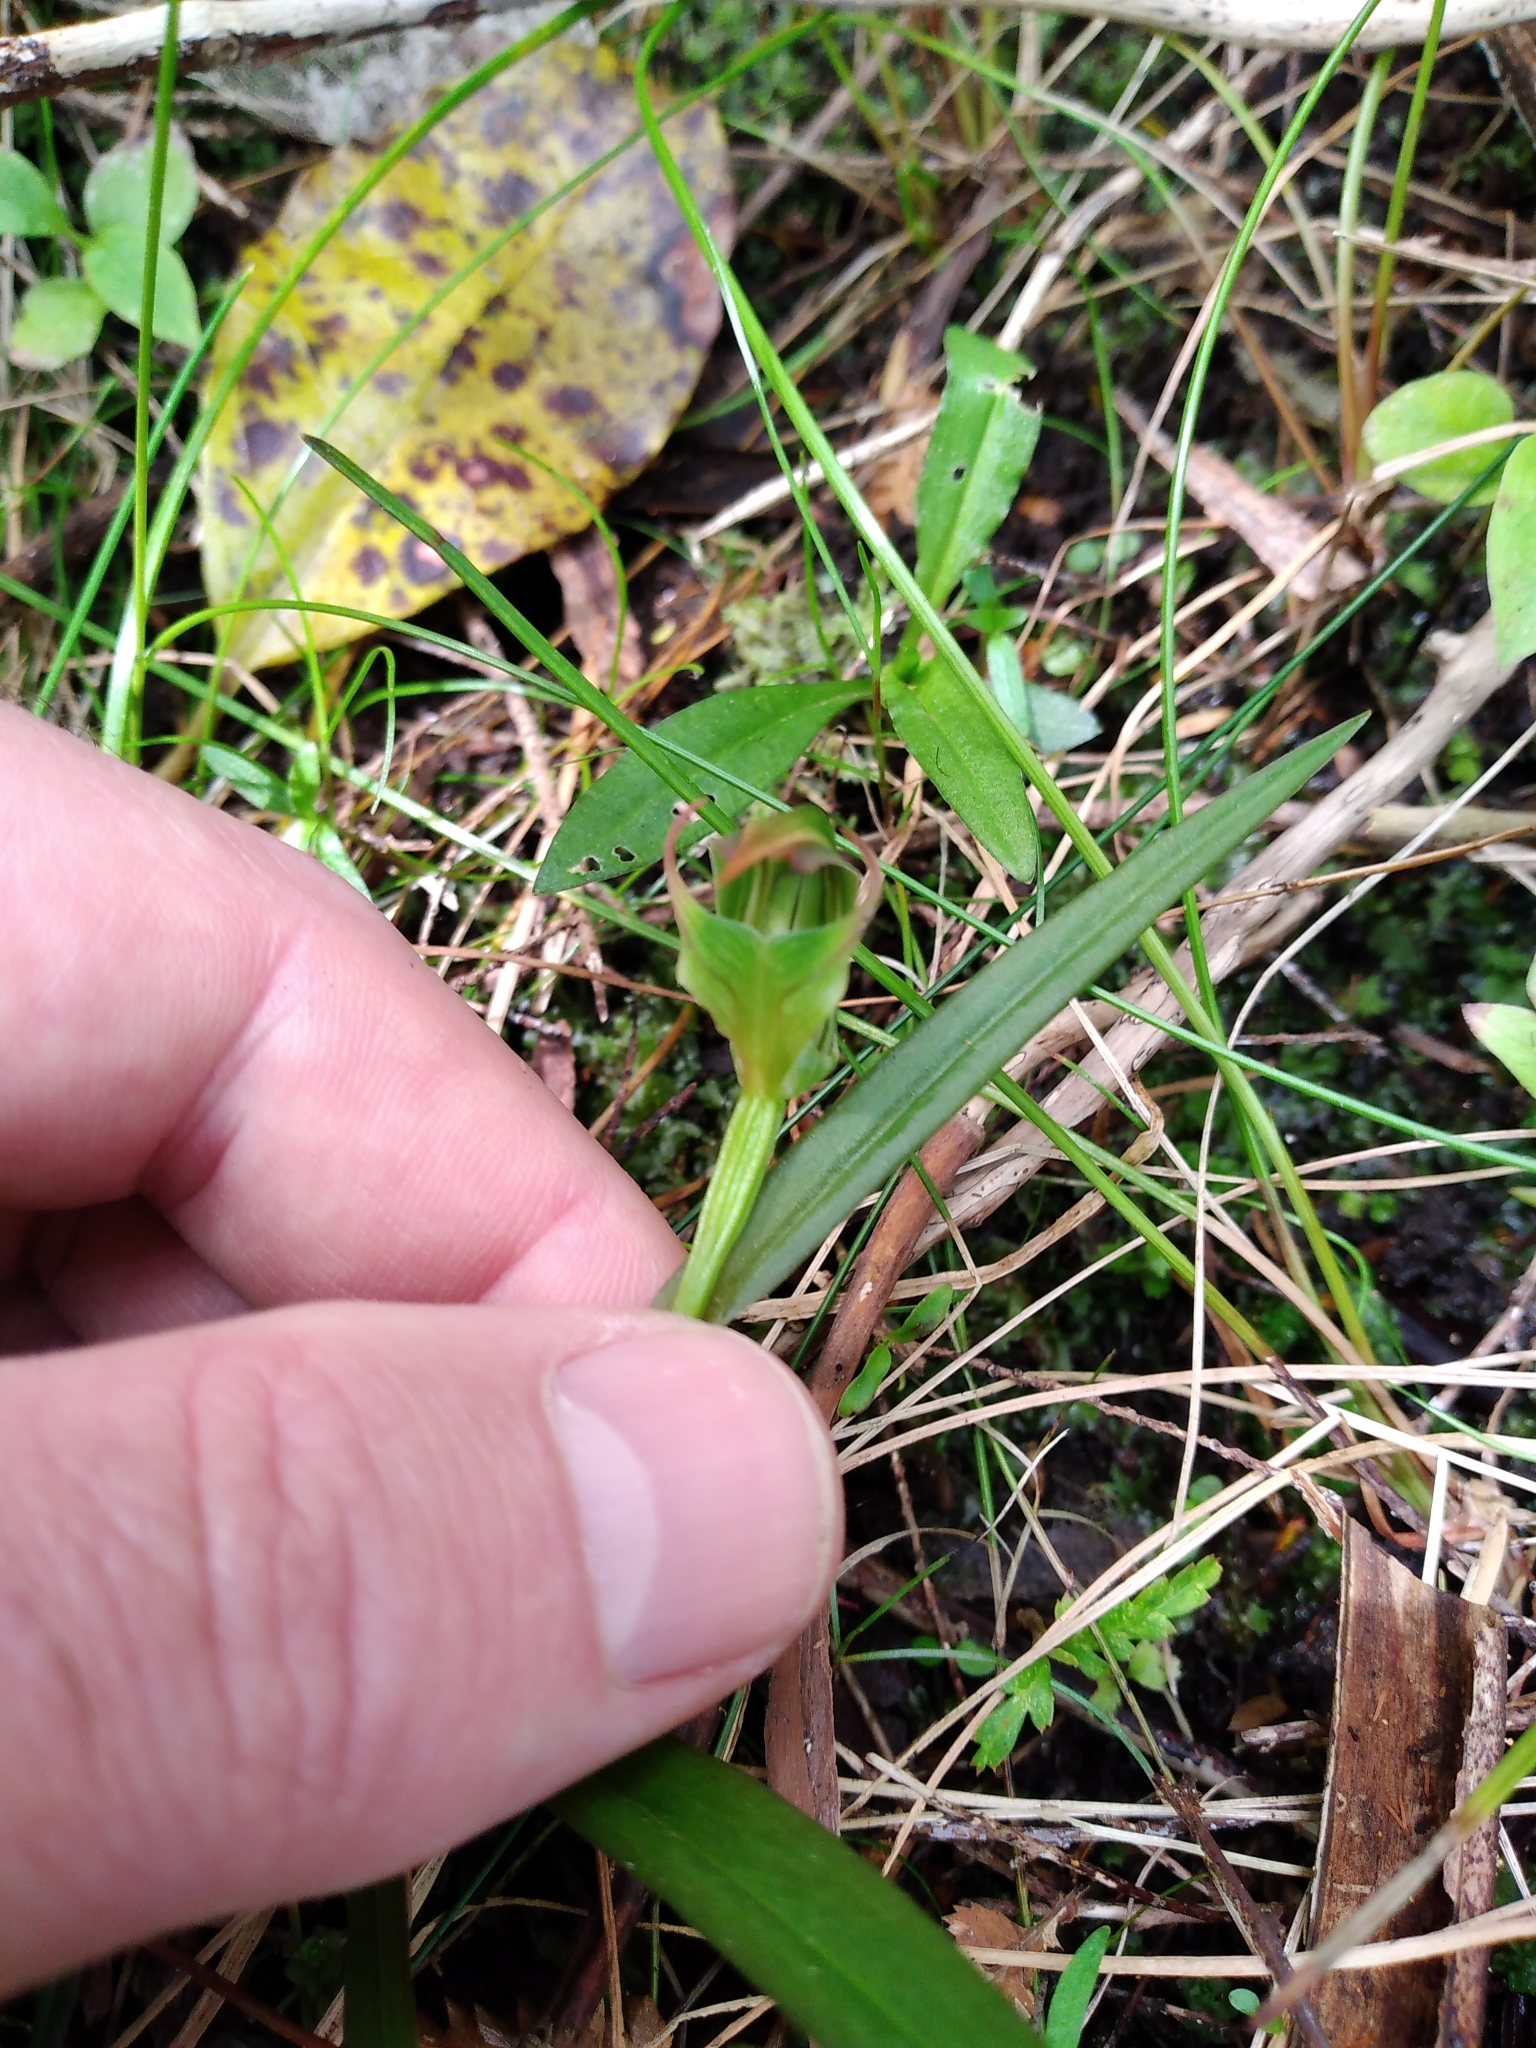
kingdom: Plantae
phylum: Tracheophyta
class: Liliopsida
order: Asparagales
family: Orchidaceae
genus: Pterostylis
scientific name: Pterostylis montana
